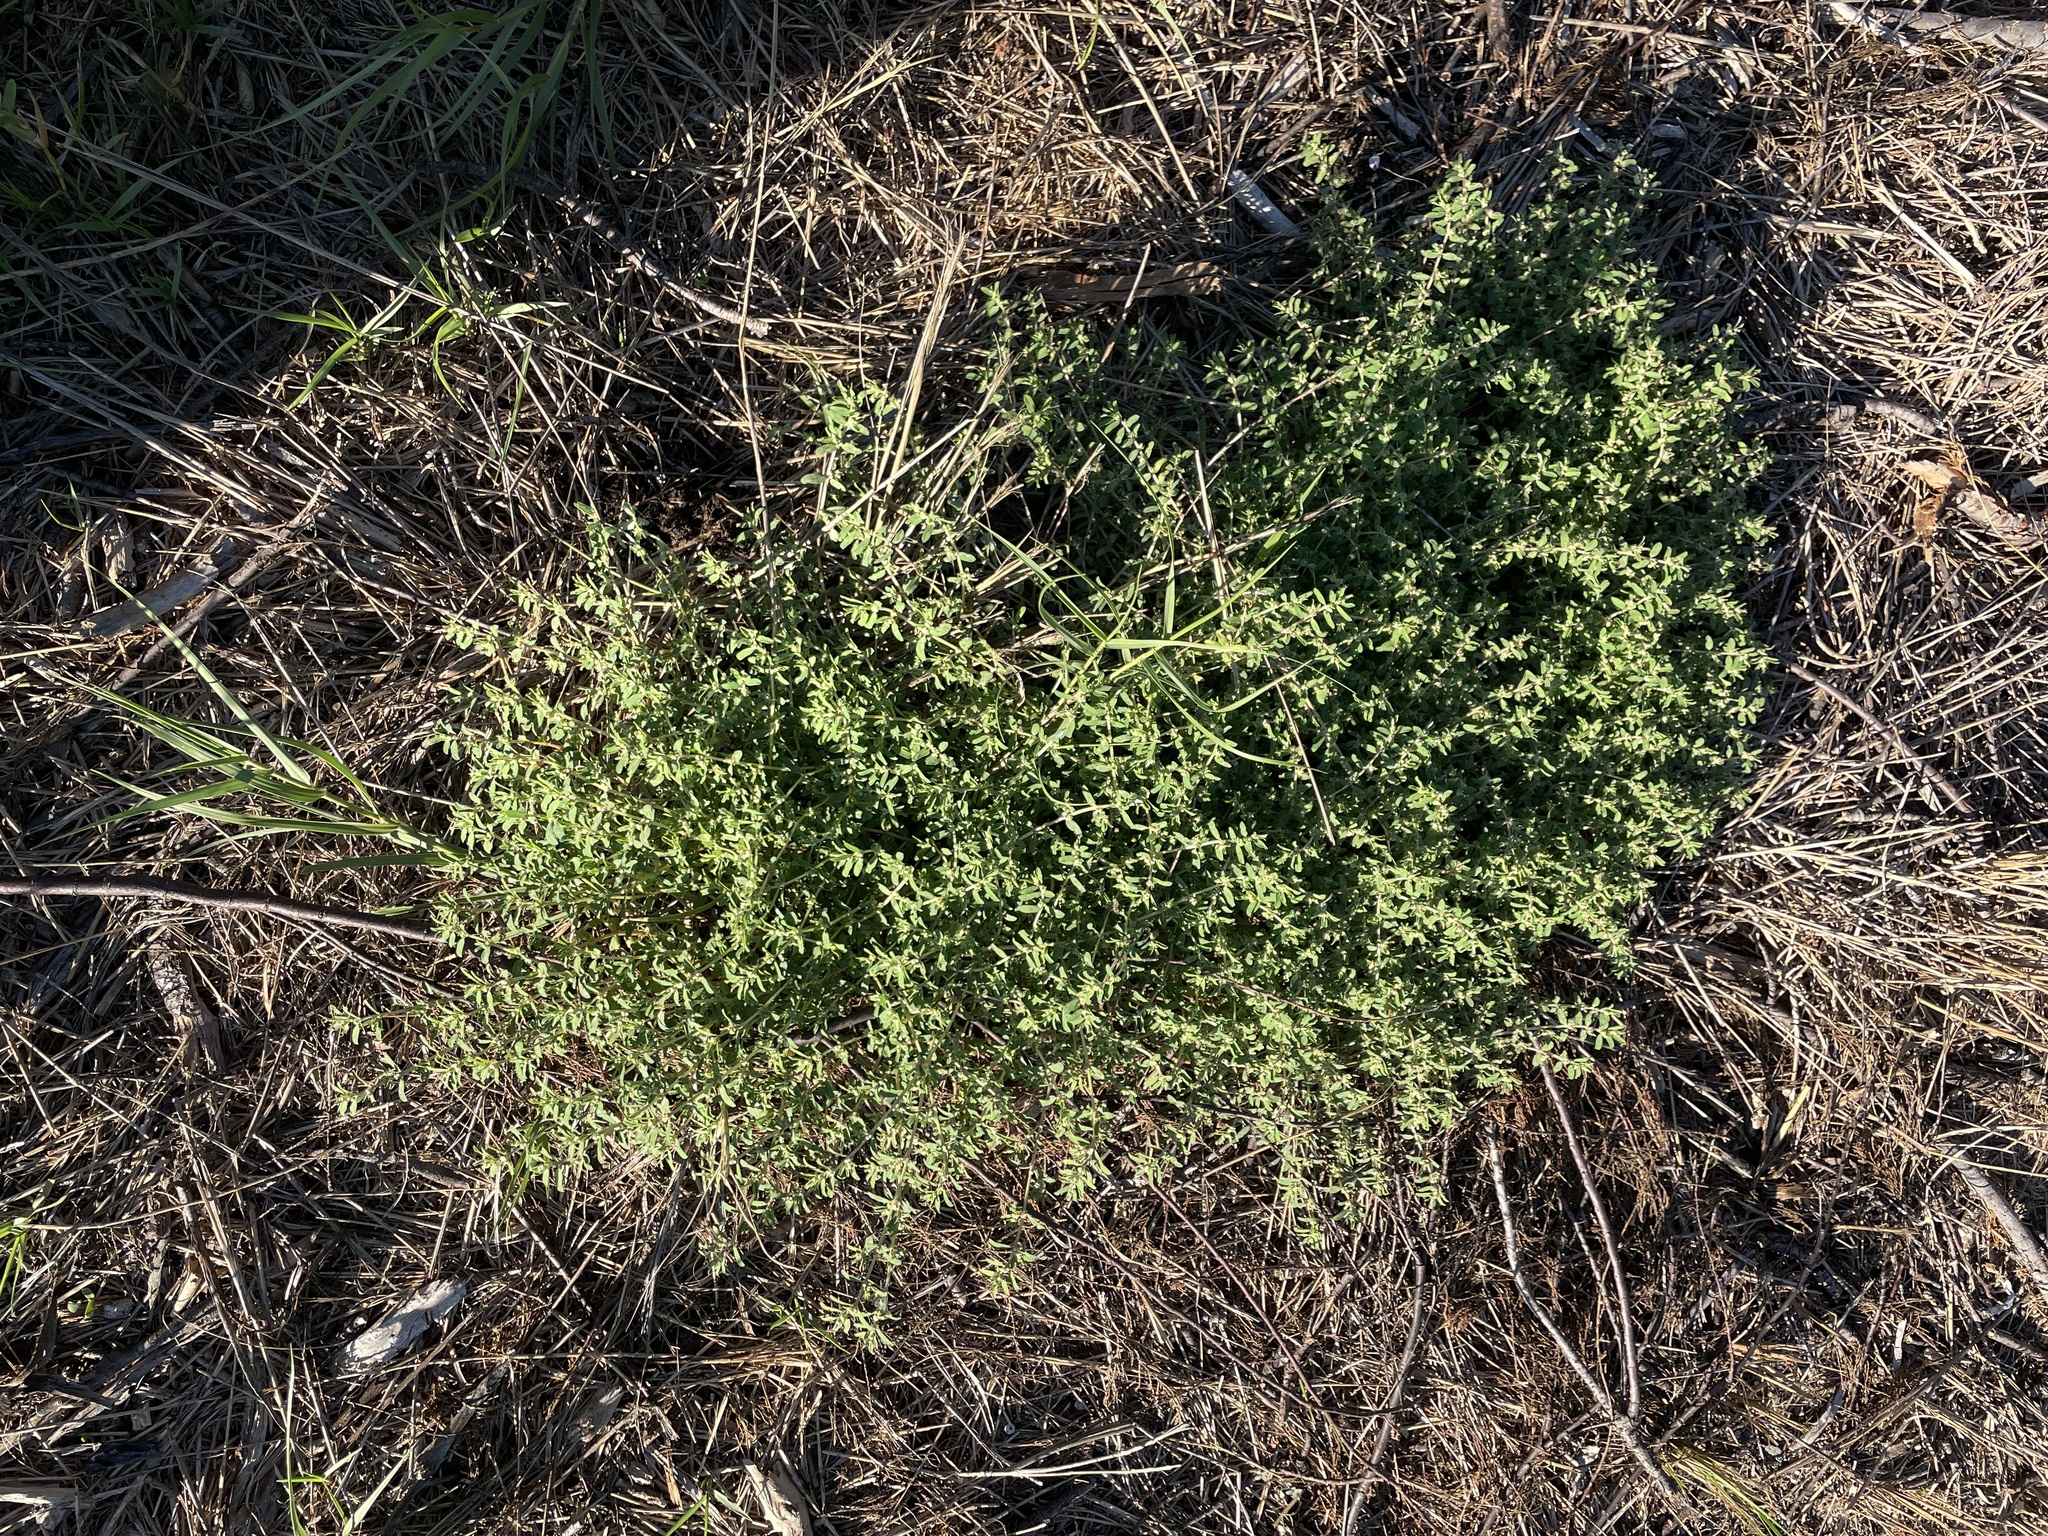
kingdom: Plantae
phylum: Tracheophyta
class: Magnoliopsida
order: Malpighiales
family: Euphorbiaceae
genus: Euphorbia
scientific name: Euphorbia maculata
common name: Spotted spurge
